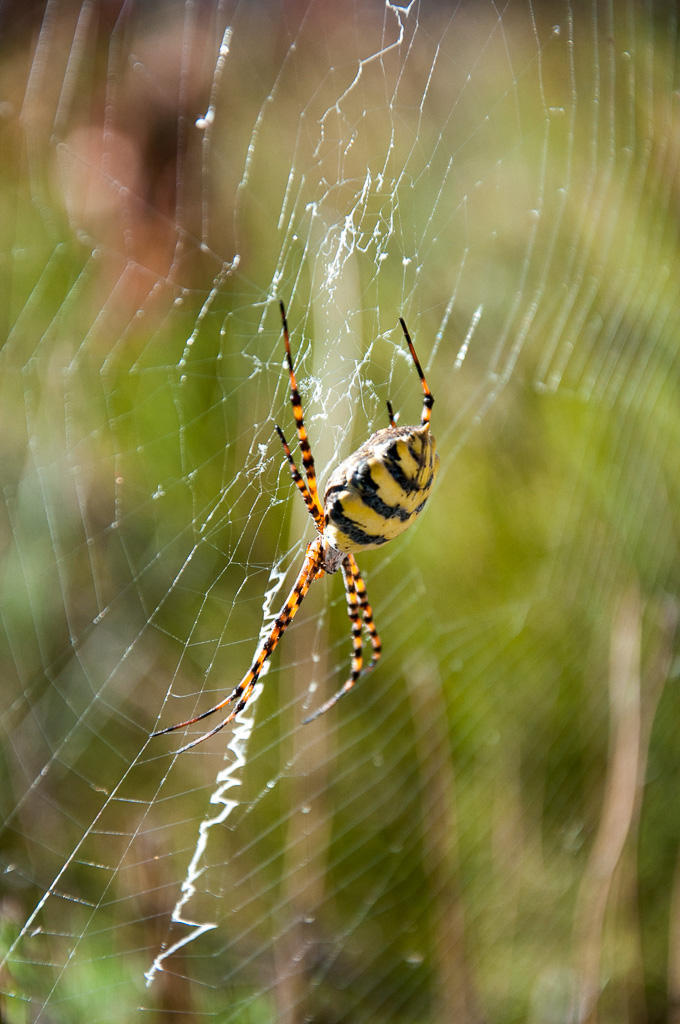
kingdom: Animalia
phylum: Arthropoda
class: Arachnida
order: Araneae
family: Araneidae
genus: Argiope
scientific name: Argiope australis
